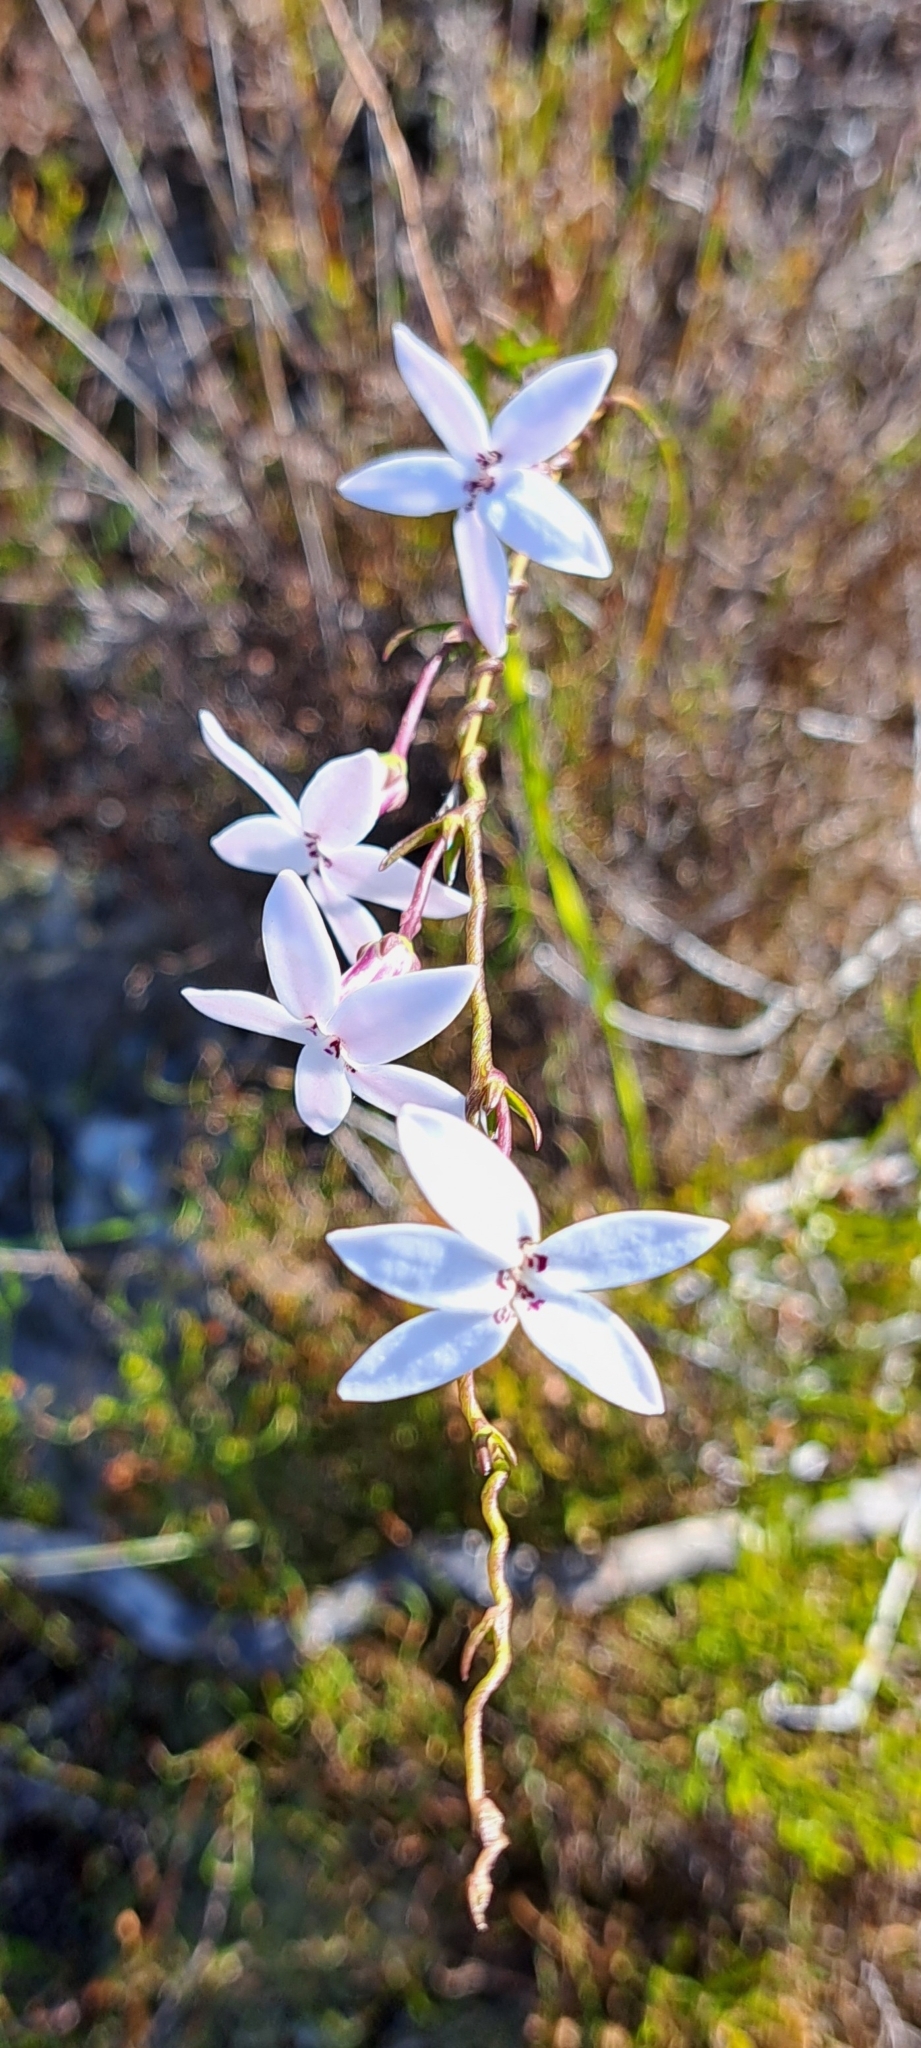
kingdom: Plantae
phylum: Tracheophyta
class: Magnoliopsida
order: Asterales
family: Campanulaceae
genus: Cyphia
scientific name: Cyphia volubilis
